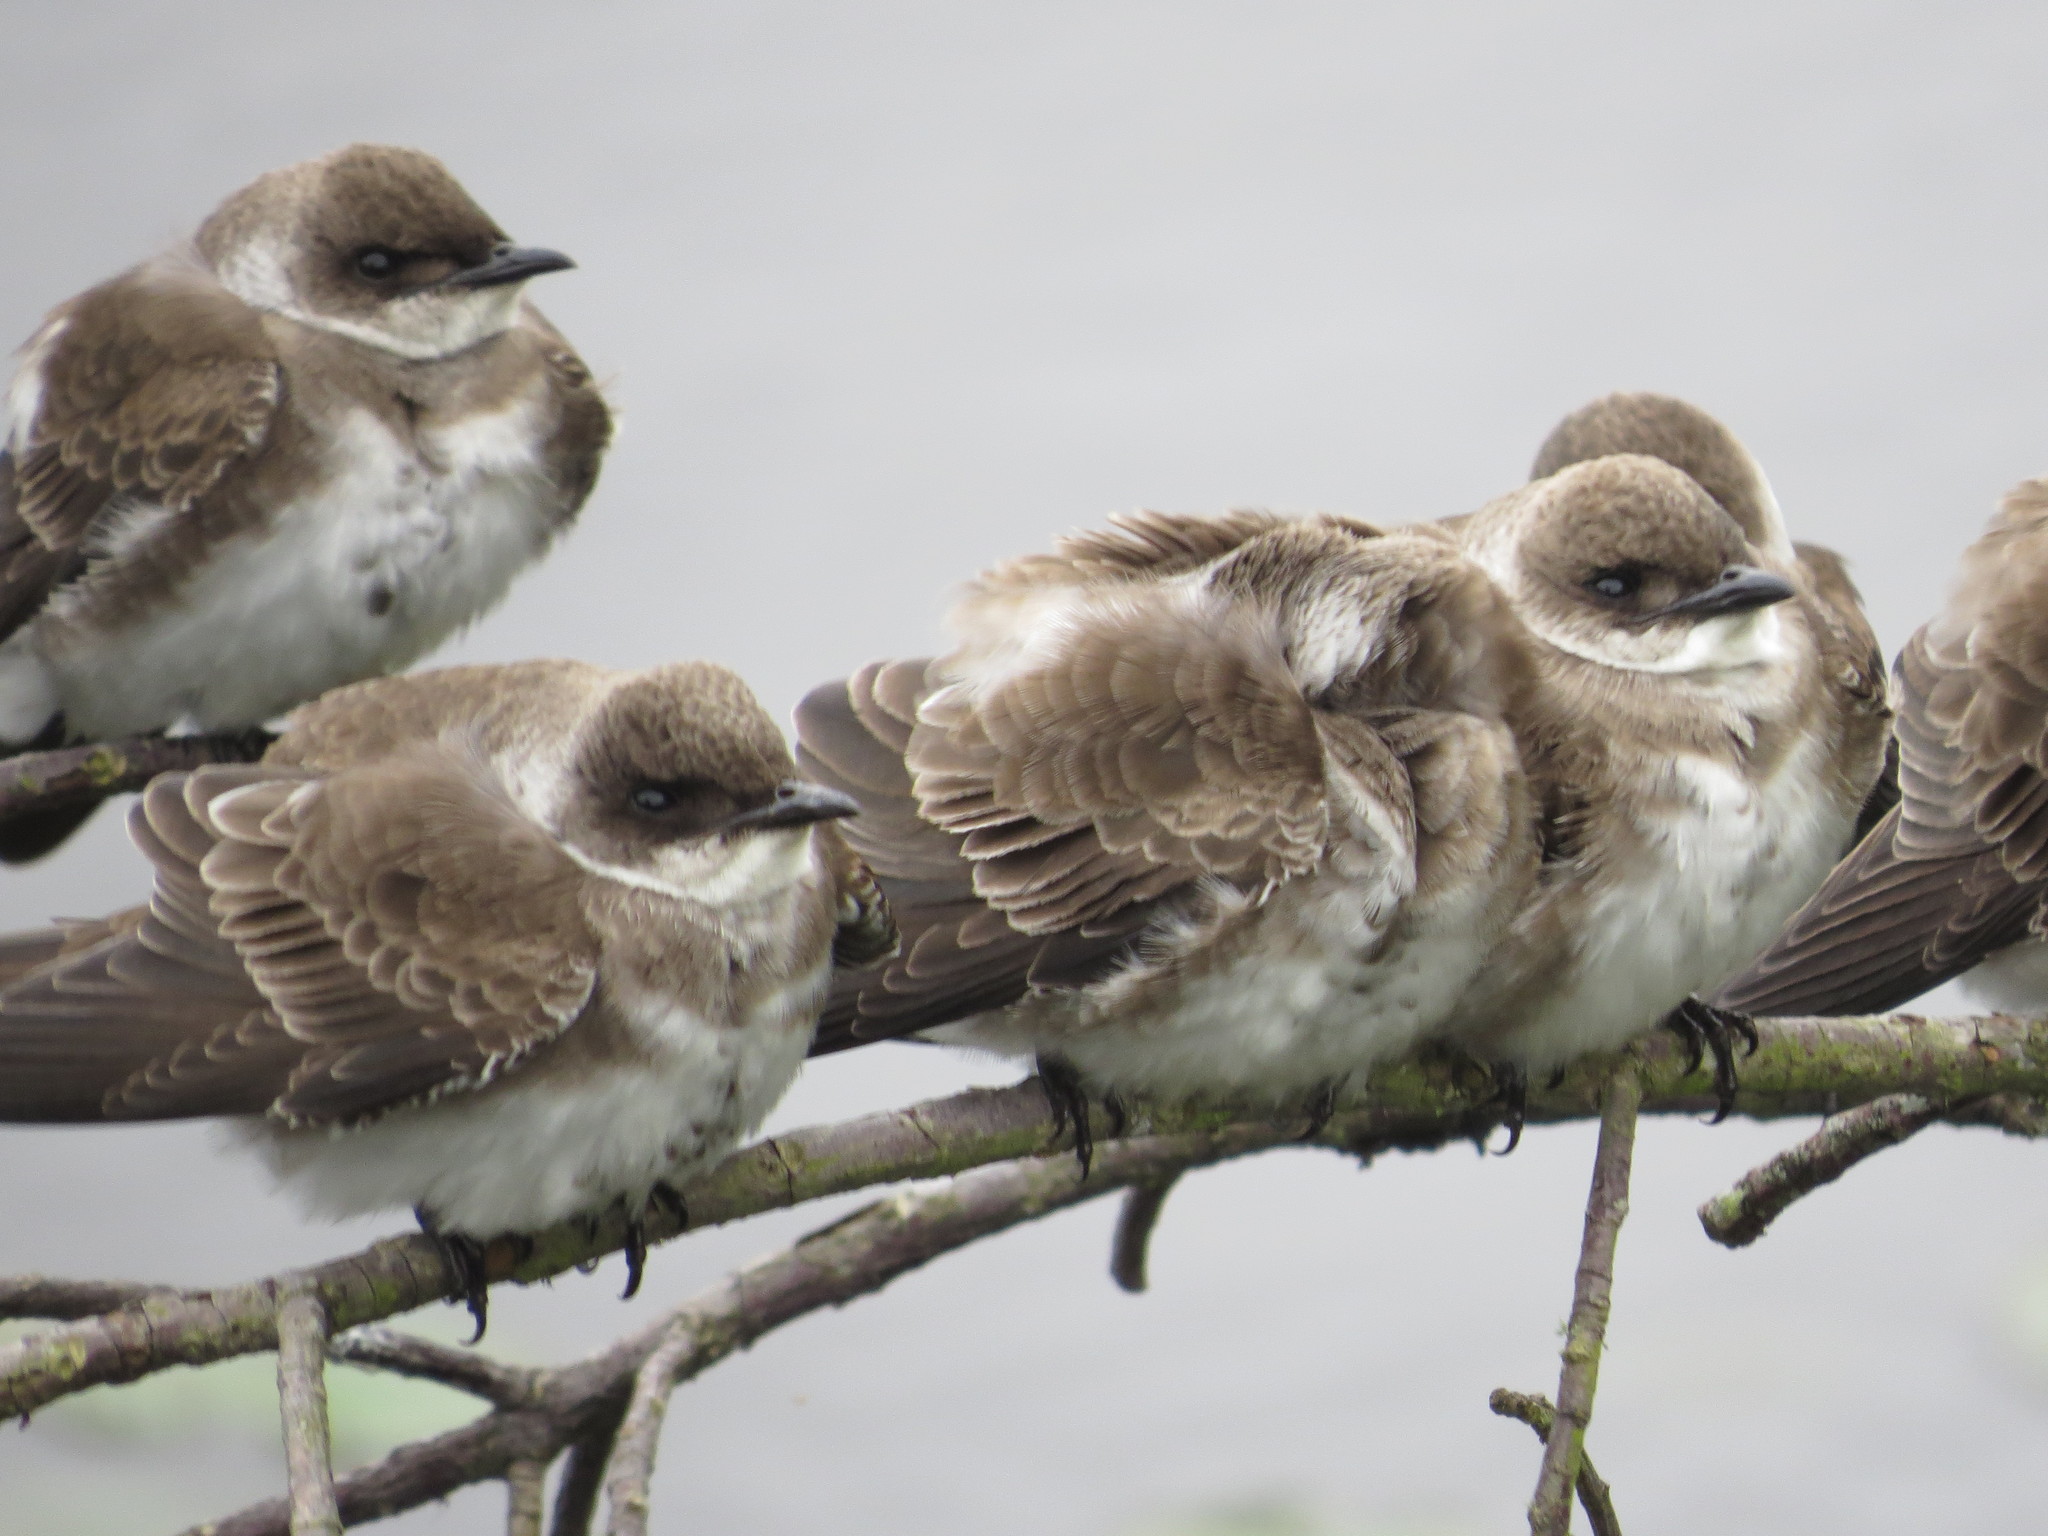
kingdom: Animalia
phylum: Chordata
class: Aves
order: Passeriformes
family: Hirundinidae
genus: Progne
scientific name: Progne tapera
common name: Brown-chested martin
